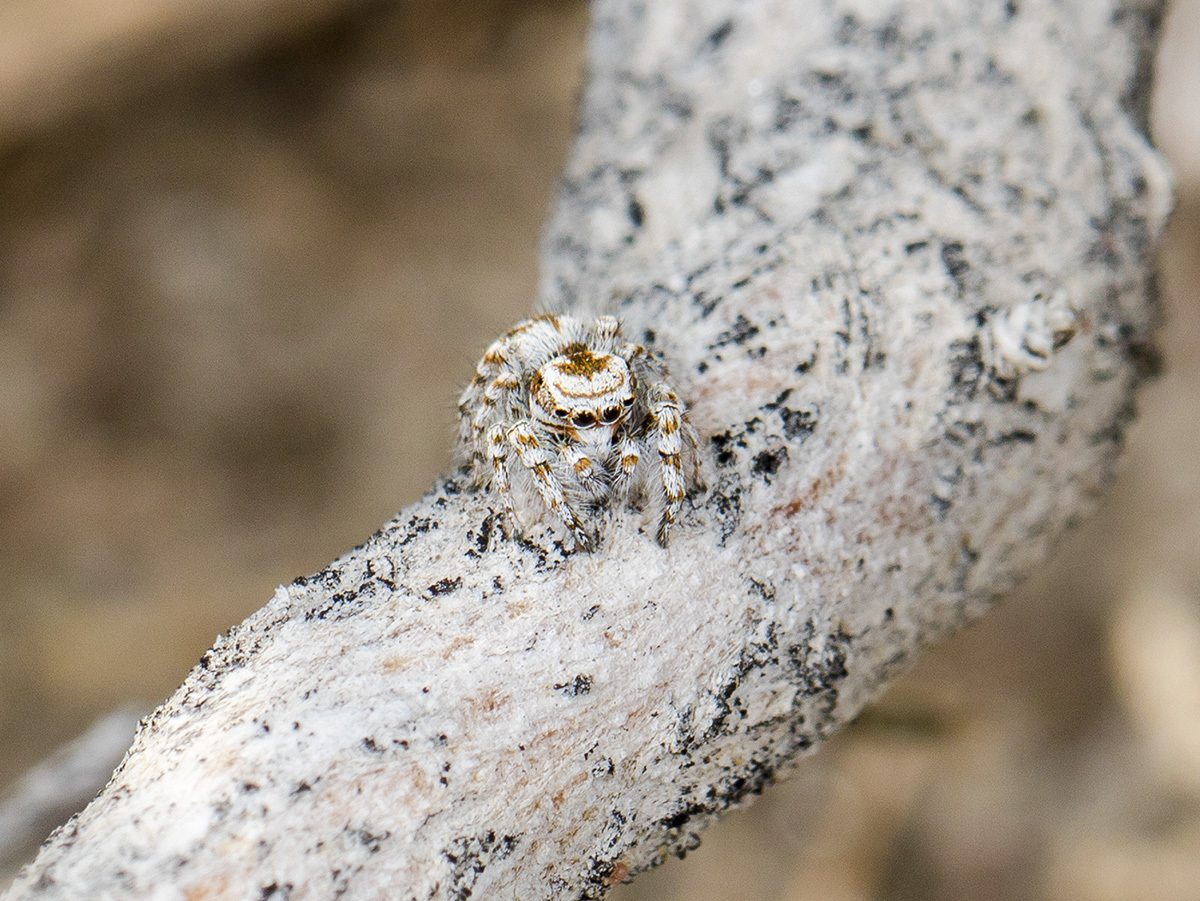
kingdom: Animalia
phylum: Arthropoda
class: Arachnida
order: Araneae
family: Salticidae
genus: Pseudomogrus
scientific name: Pseudomogrus dalaensis
